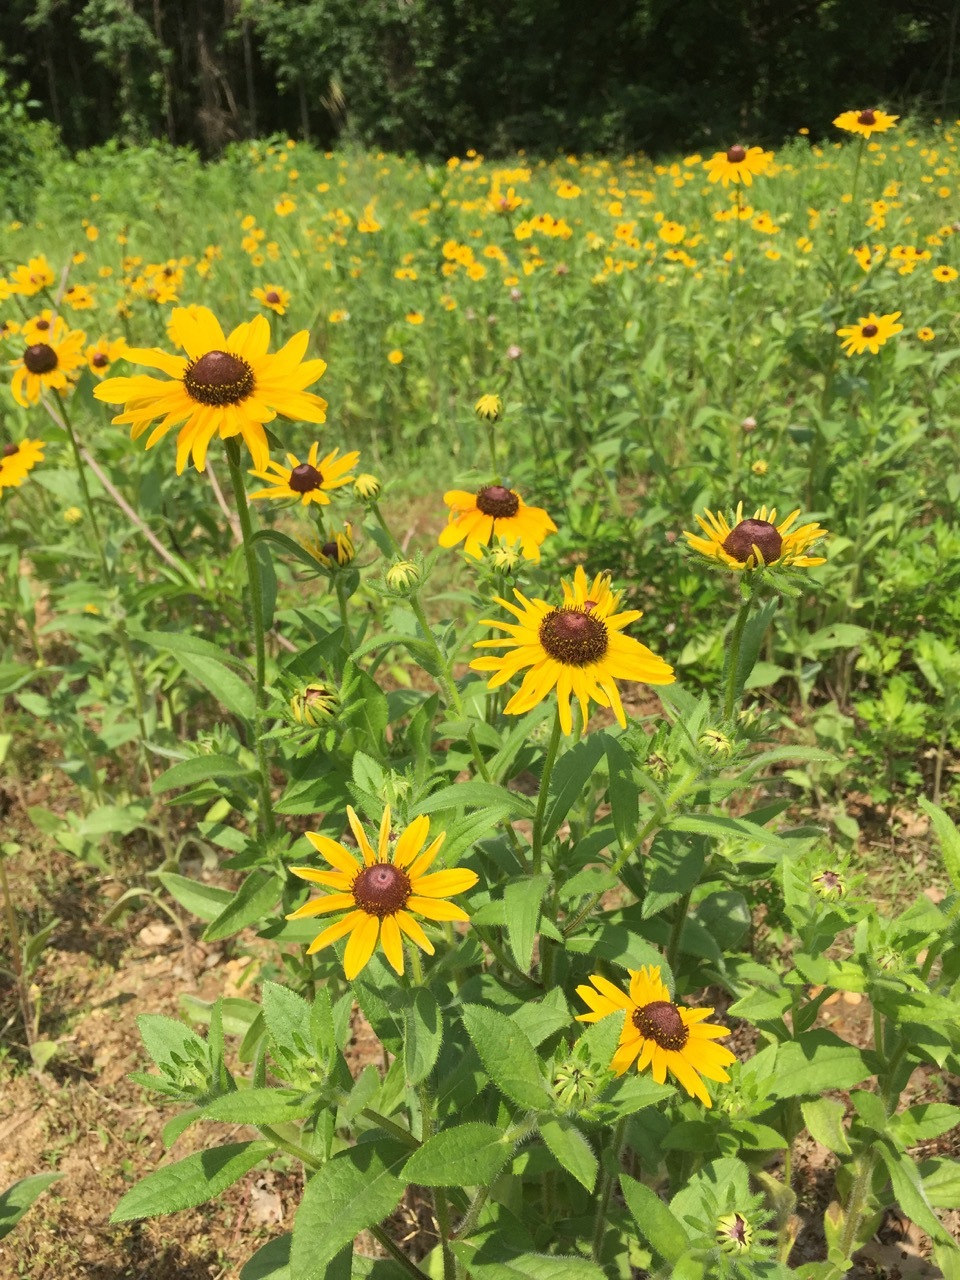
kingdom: Plantae
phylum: Tracheophyta
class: Magnoliopsida
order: Asterales
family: Asteraceae
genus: Rudbeckia
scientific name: Rudbeckia hirta
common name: Black-eyed-susan
